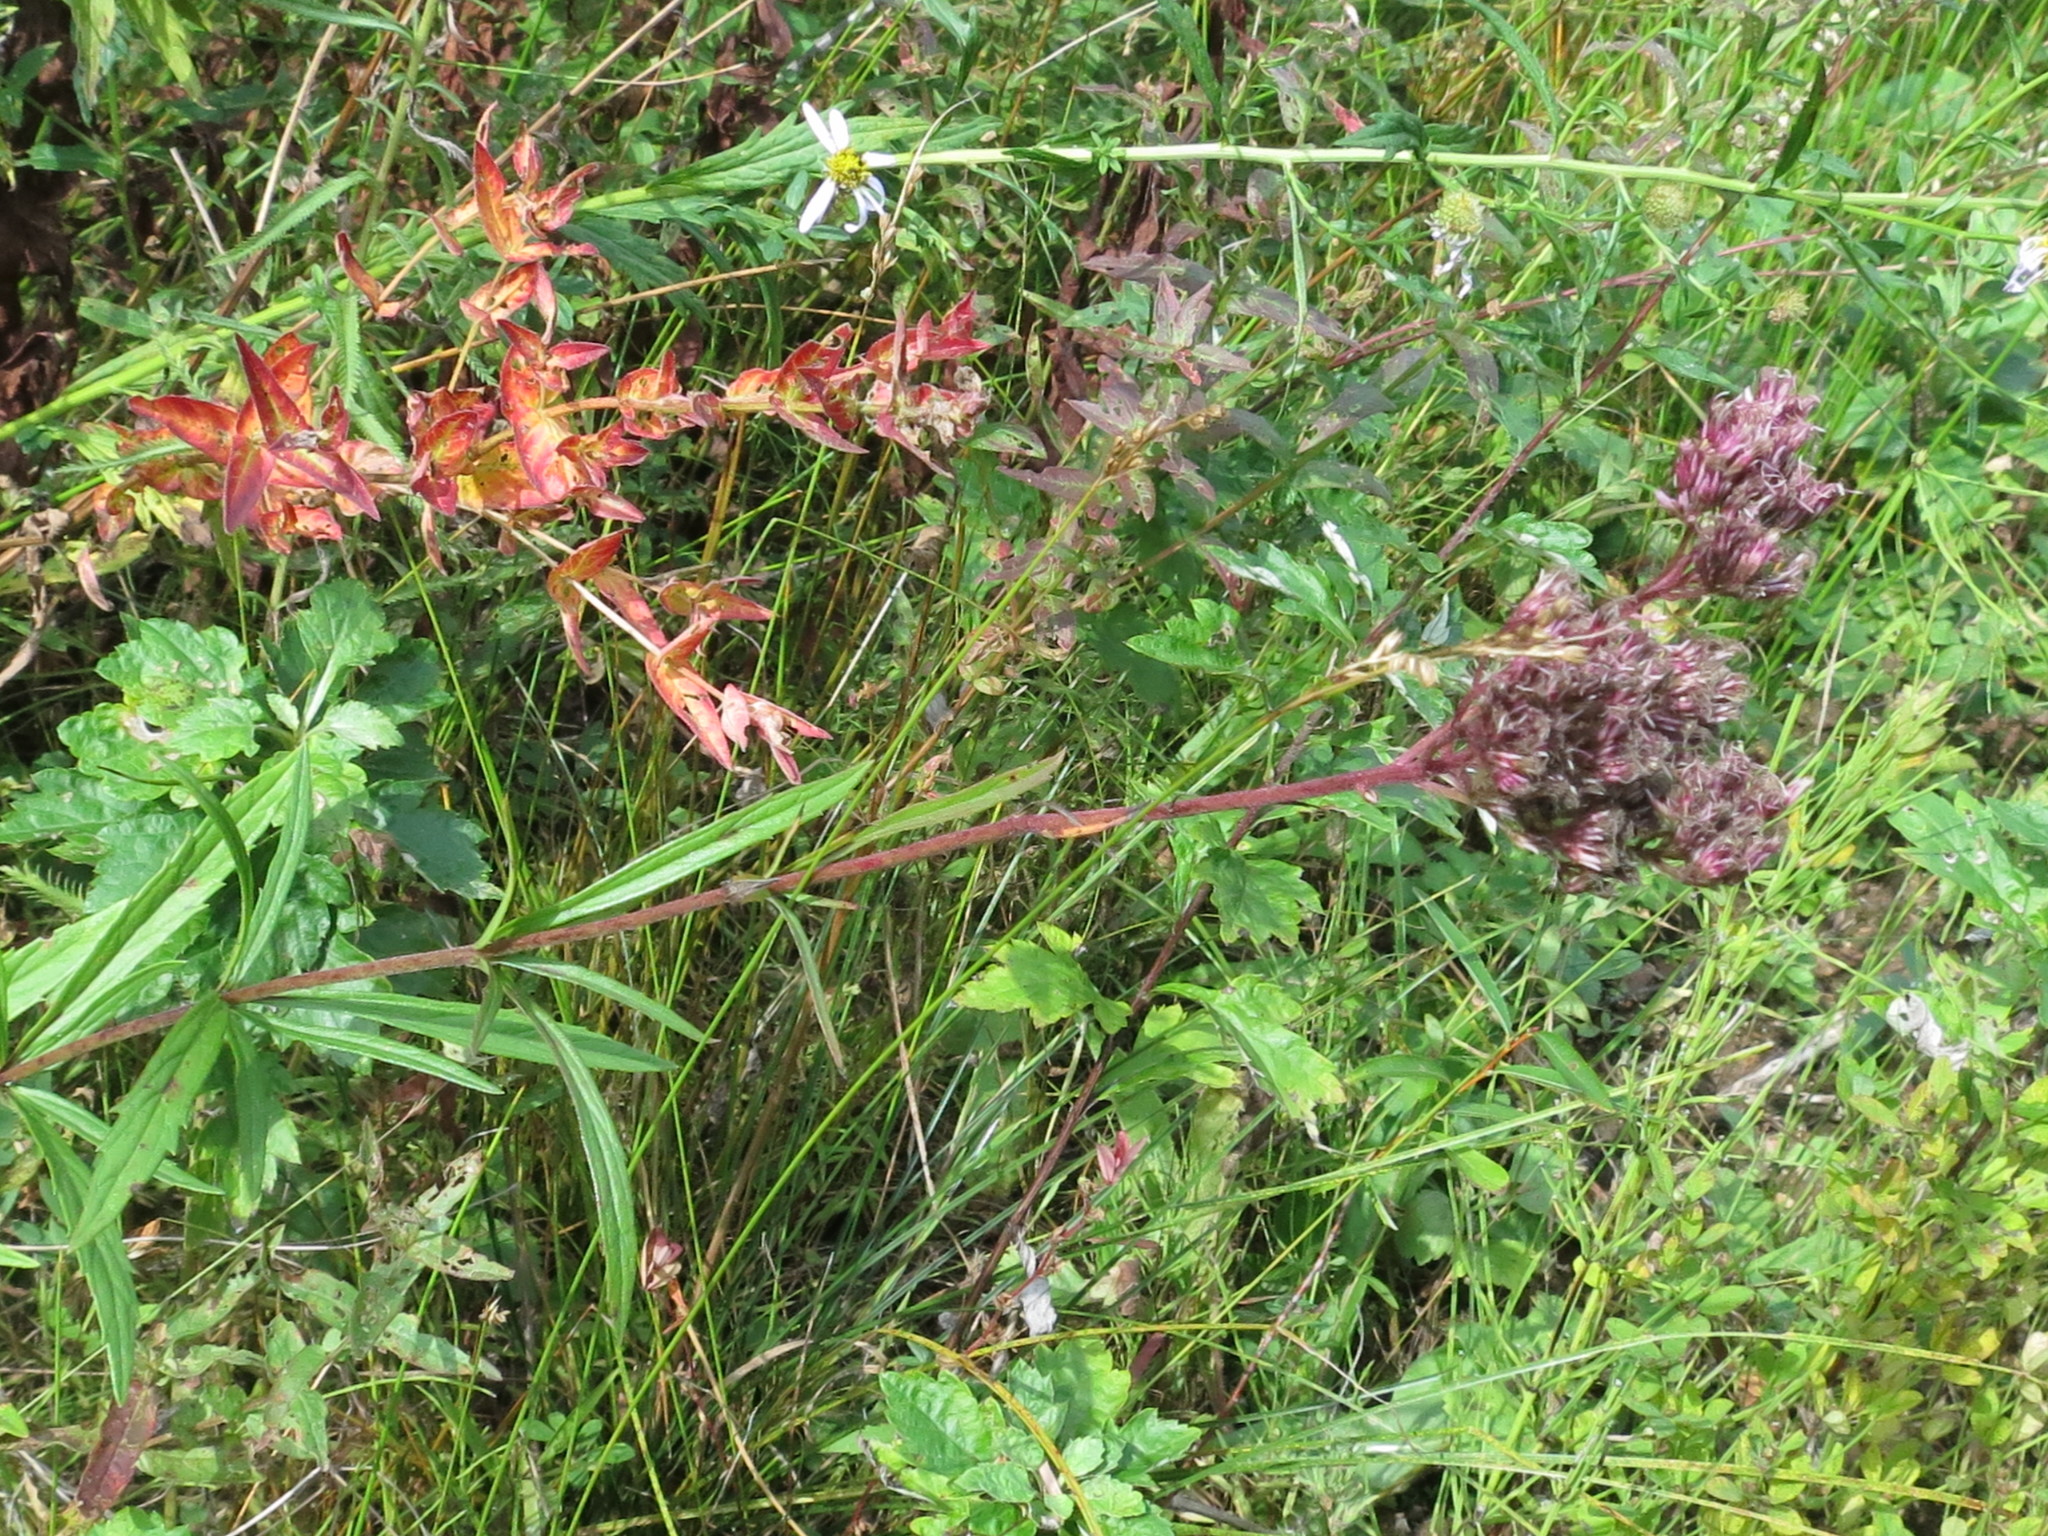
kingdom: Plantae
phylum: Tracheophyta
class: Magnoliopsida
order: Asterales
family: Asteraceae
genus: Eupatorium
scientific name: Eupatorium lindleyanum
